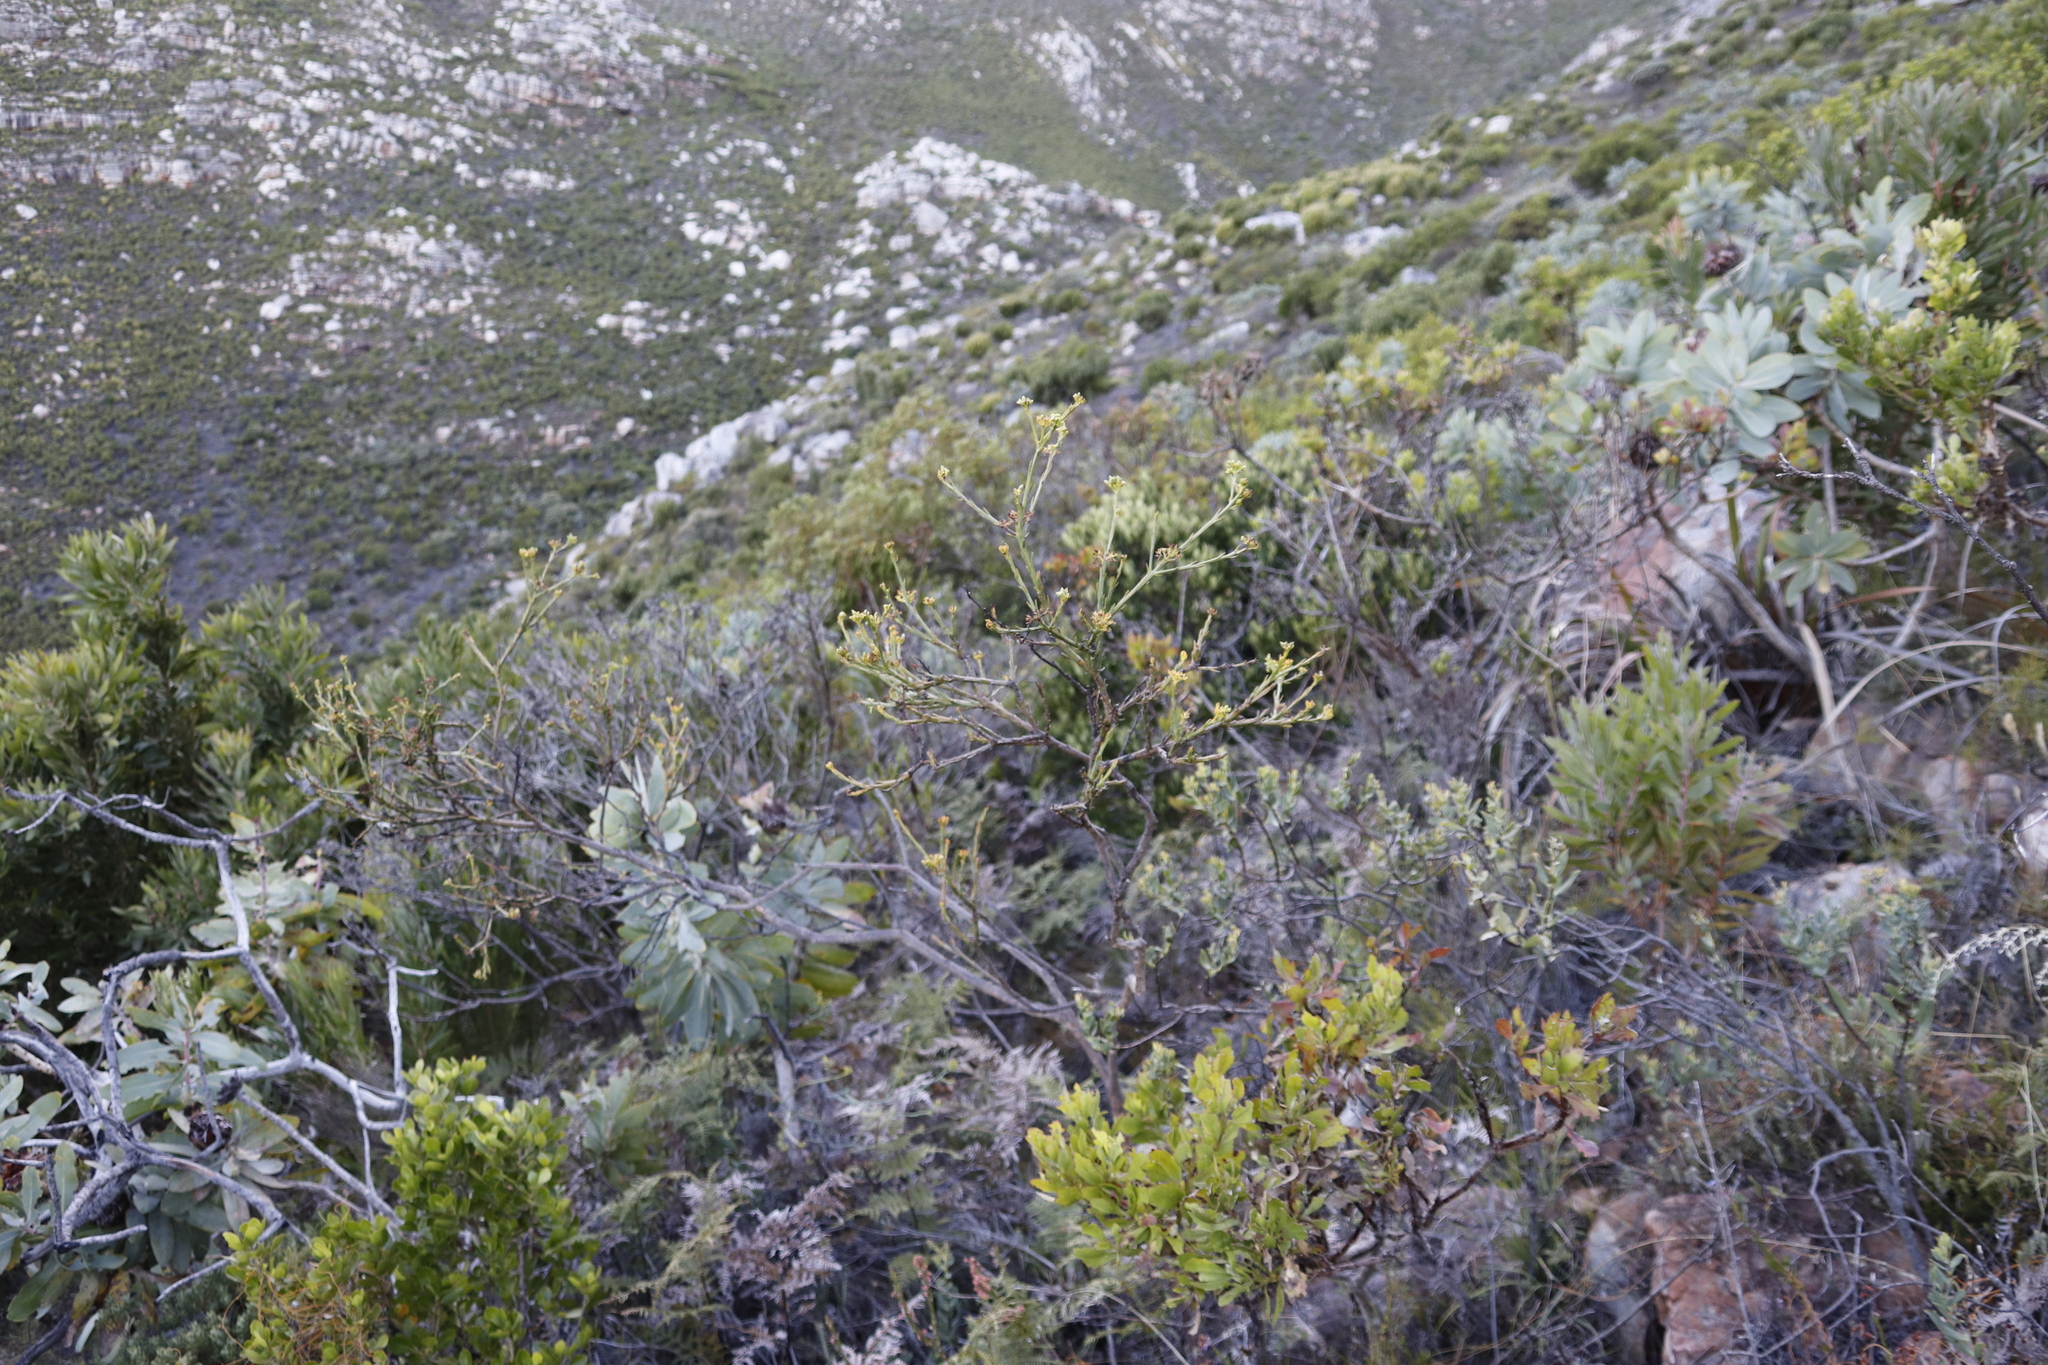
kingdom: Plantae
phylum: Tracheophyta
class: Magnoliopsida
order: Santalales
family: Thesiaceae
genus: Thesium
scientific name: Thesium strictum
